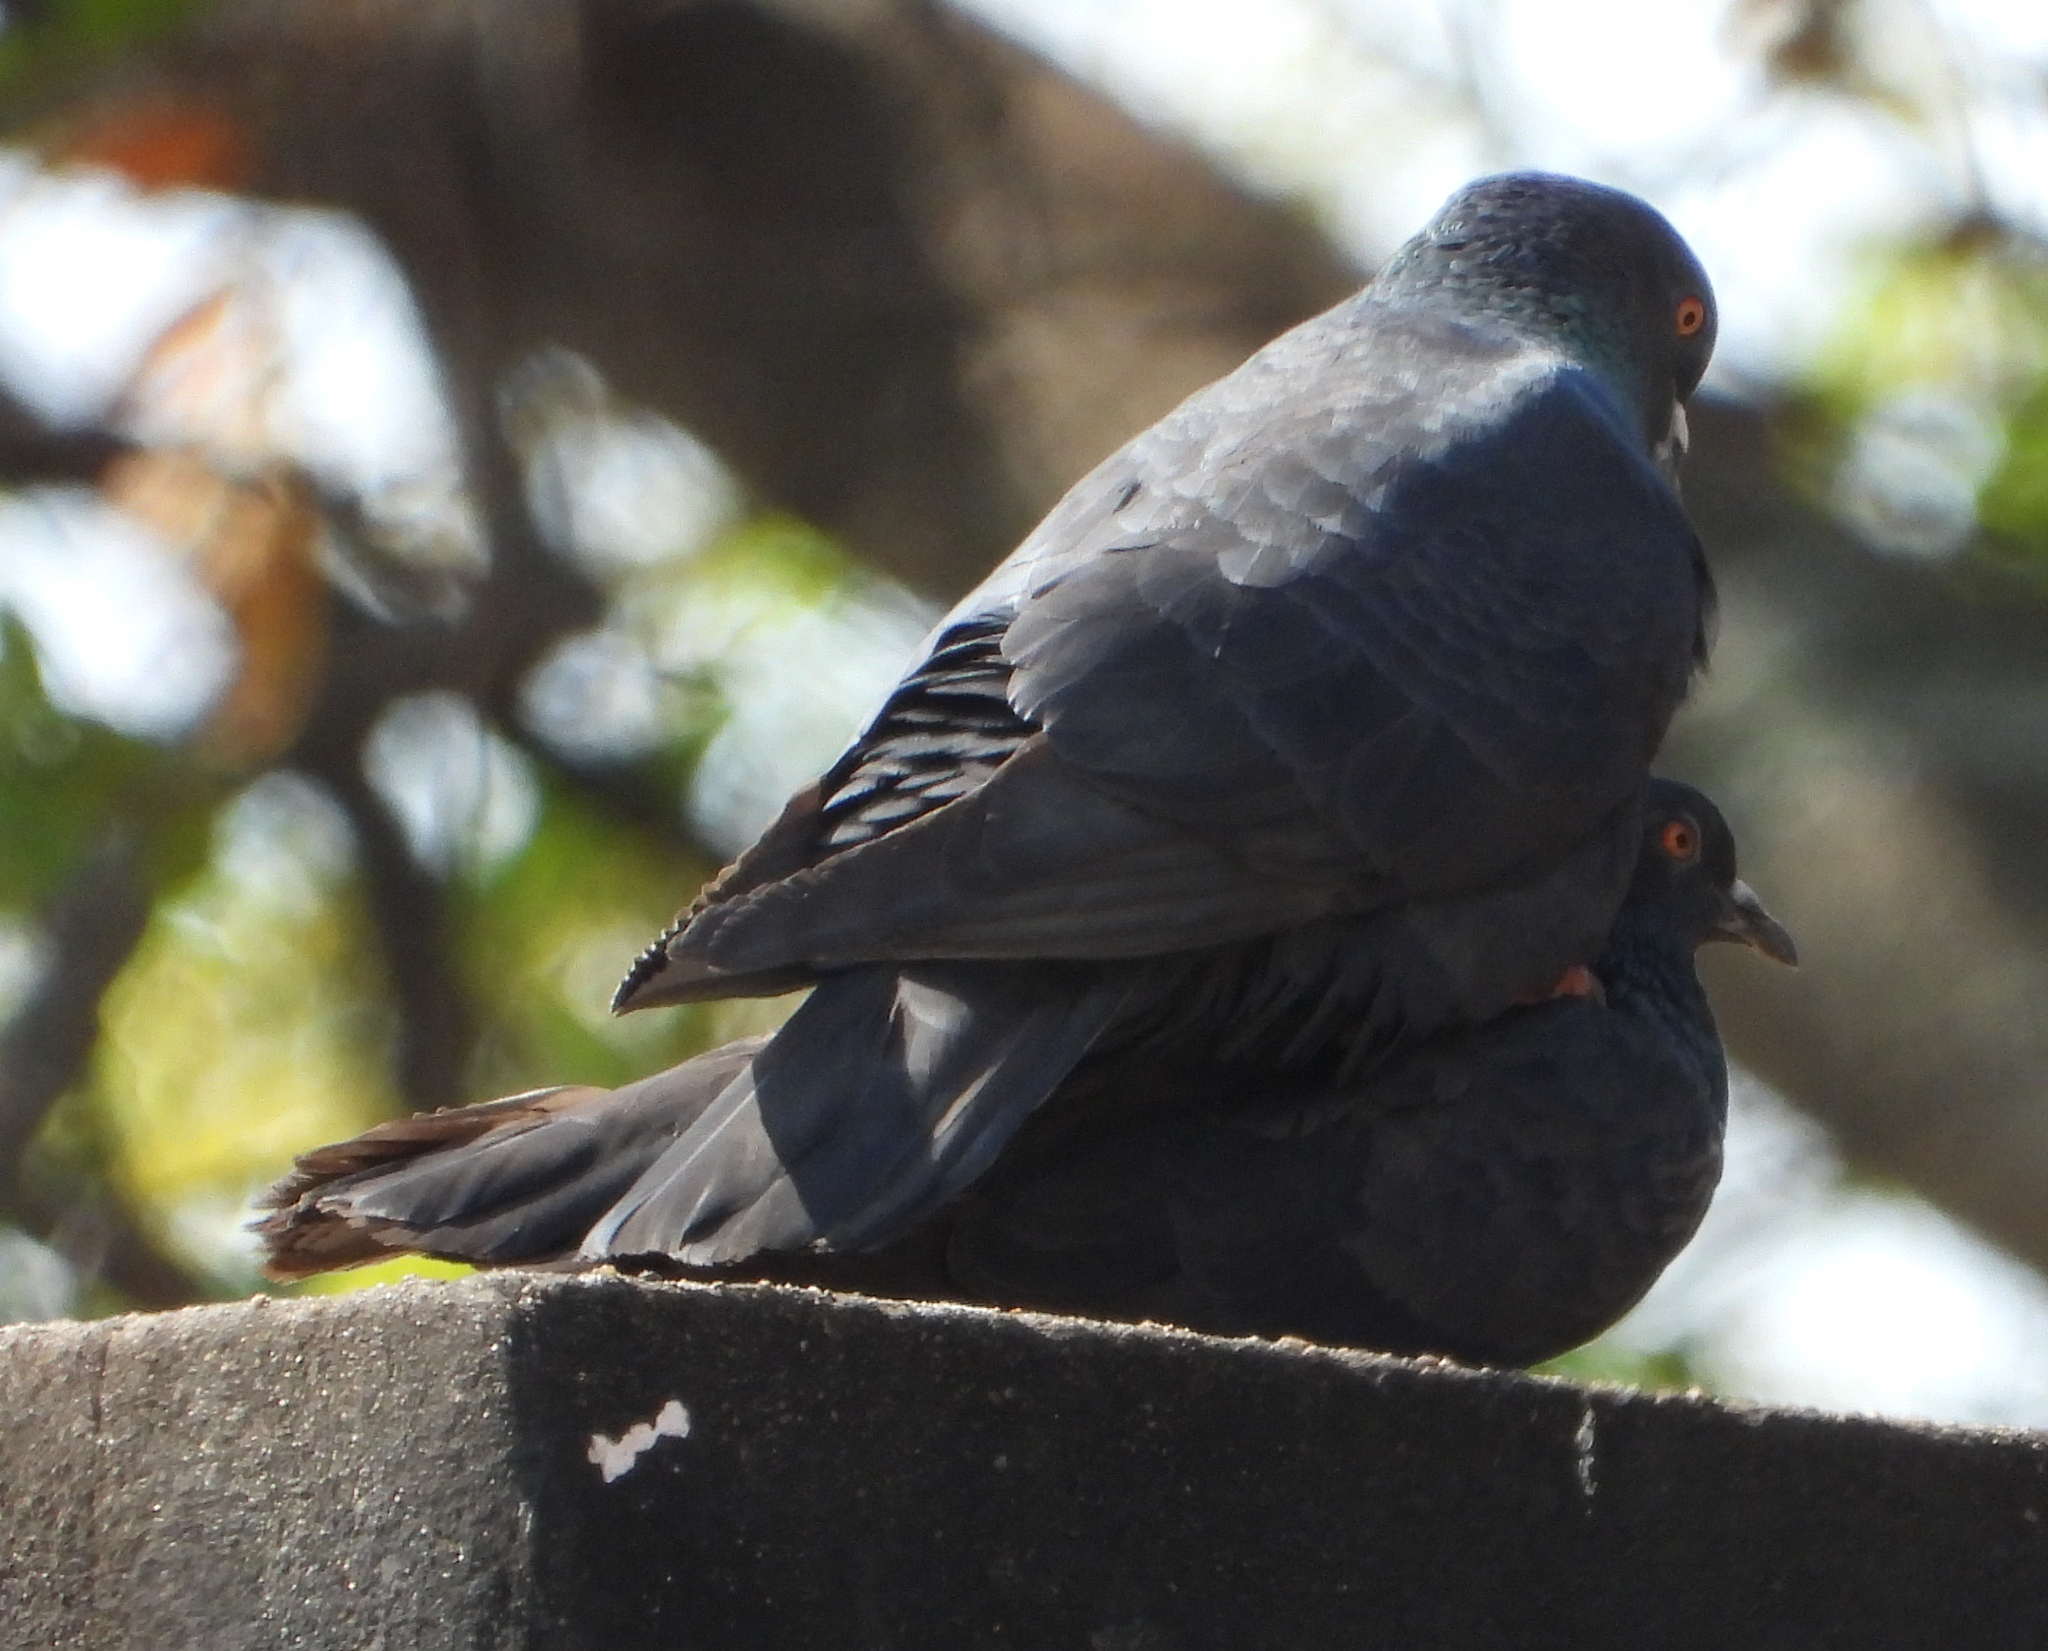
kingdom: Animalia
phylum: Chordata
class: Aves
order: Columbiformes
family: Columbidae
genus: Columba
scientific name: Columba livia
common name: Rock pigeon
